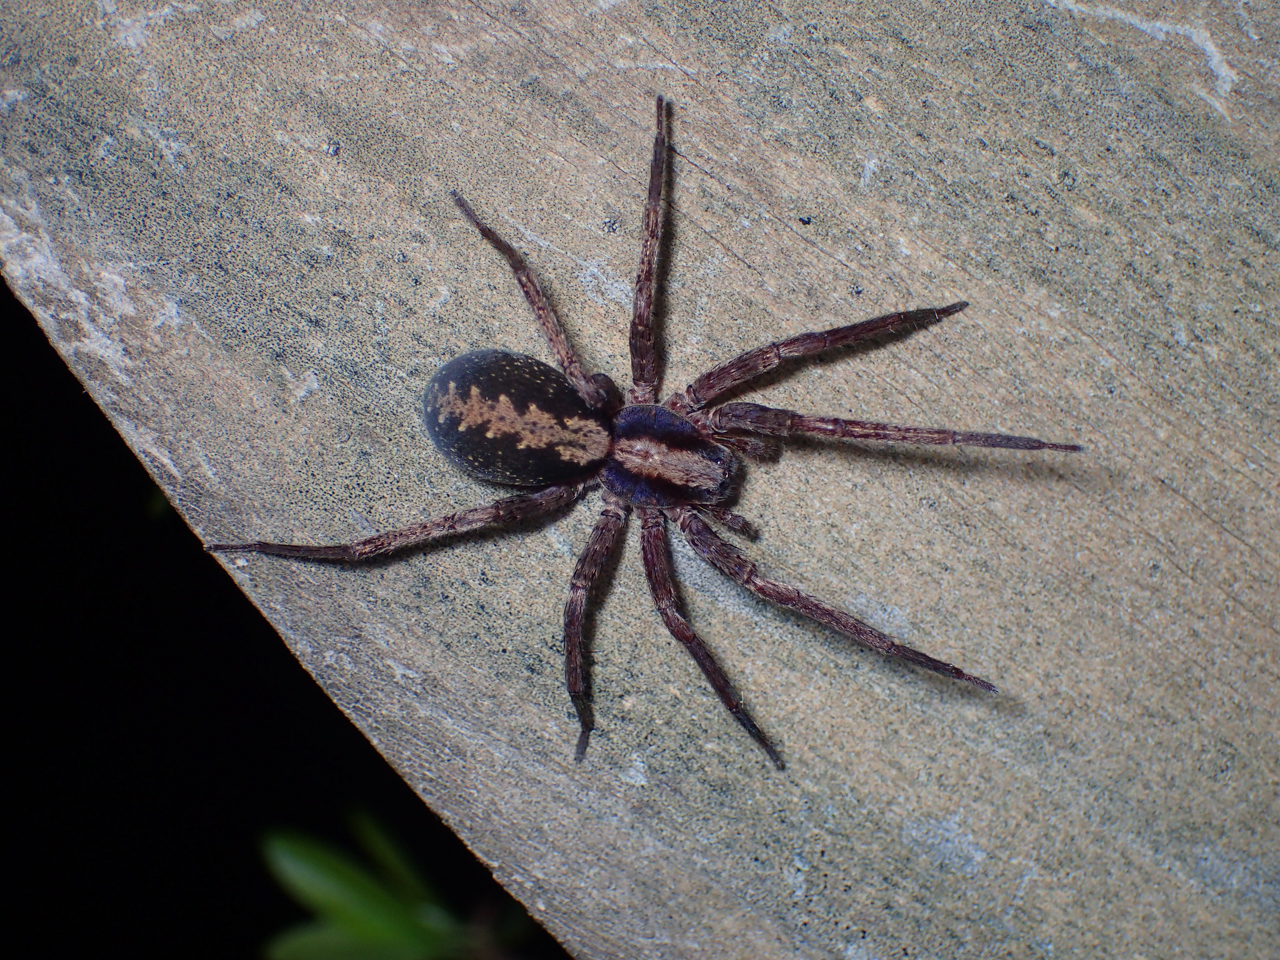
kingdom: Animalia
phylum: Arthropoda
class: Arachnida
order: Araneae
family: Ctenidae
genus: Ctenus
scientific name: Ctenus hibernalis
